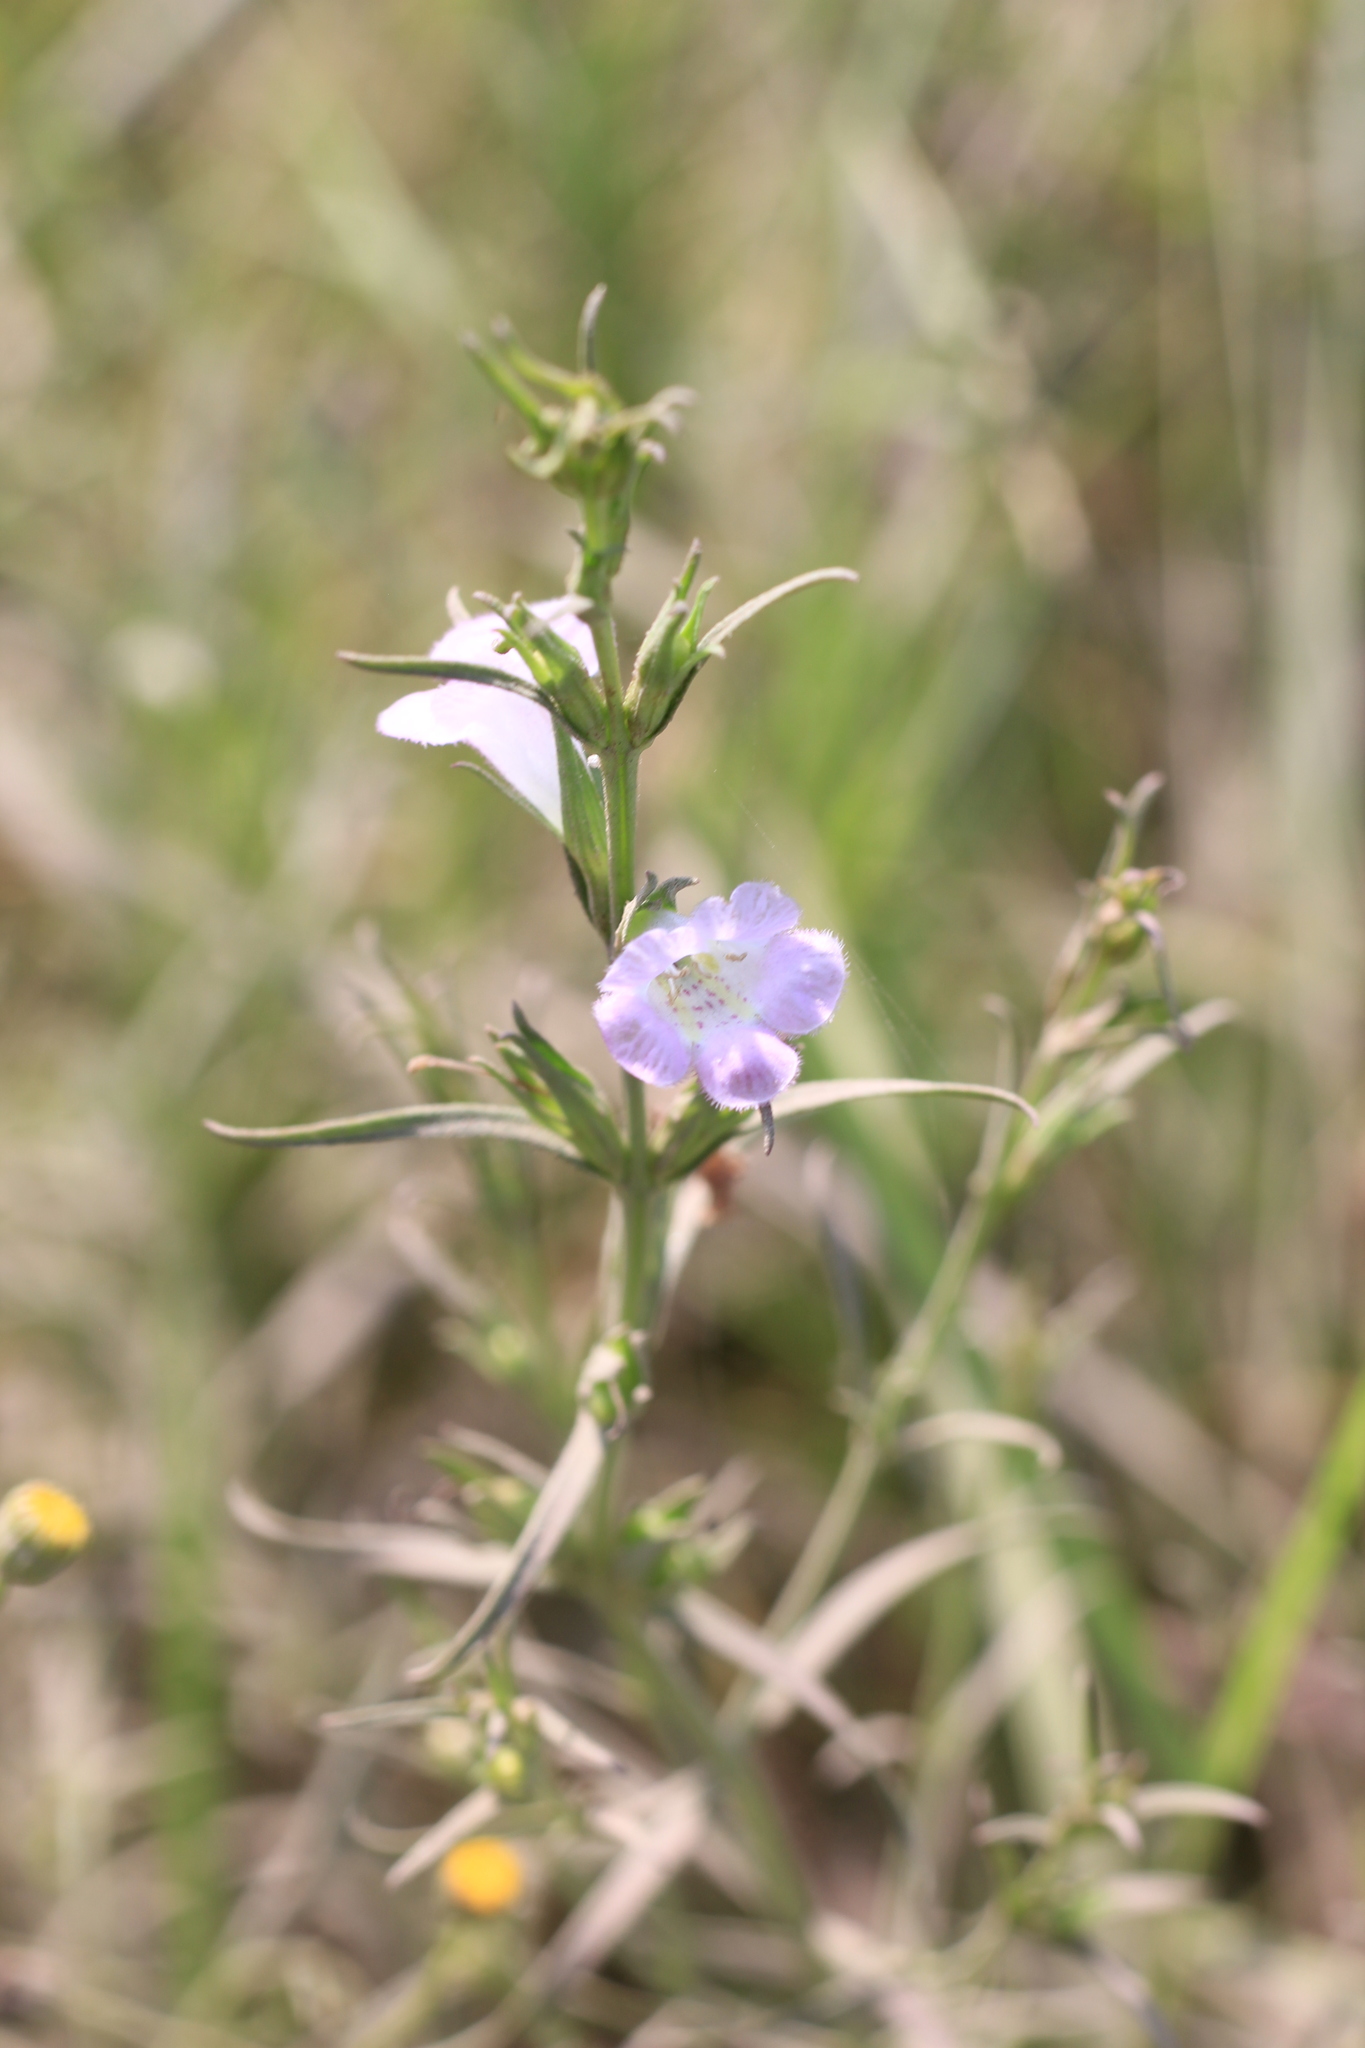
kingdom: Plantae
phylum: Tracheophyta
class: Magnoliopsida
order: Lamiales
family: Orobanchaceae
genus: Agalinis
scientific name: Agalinis communis
